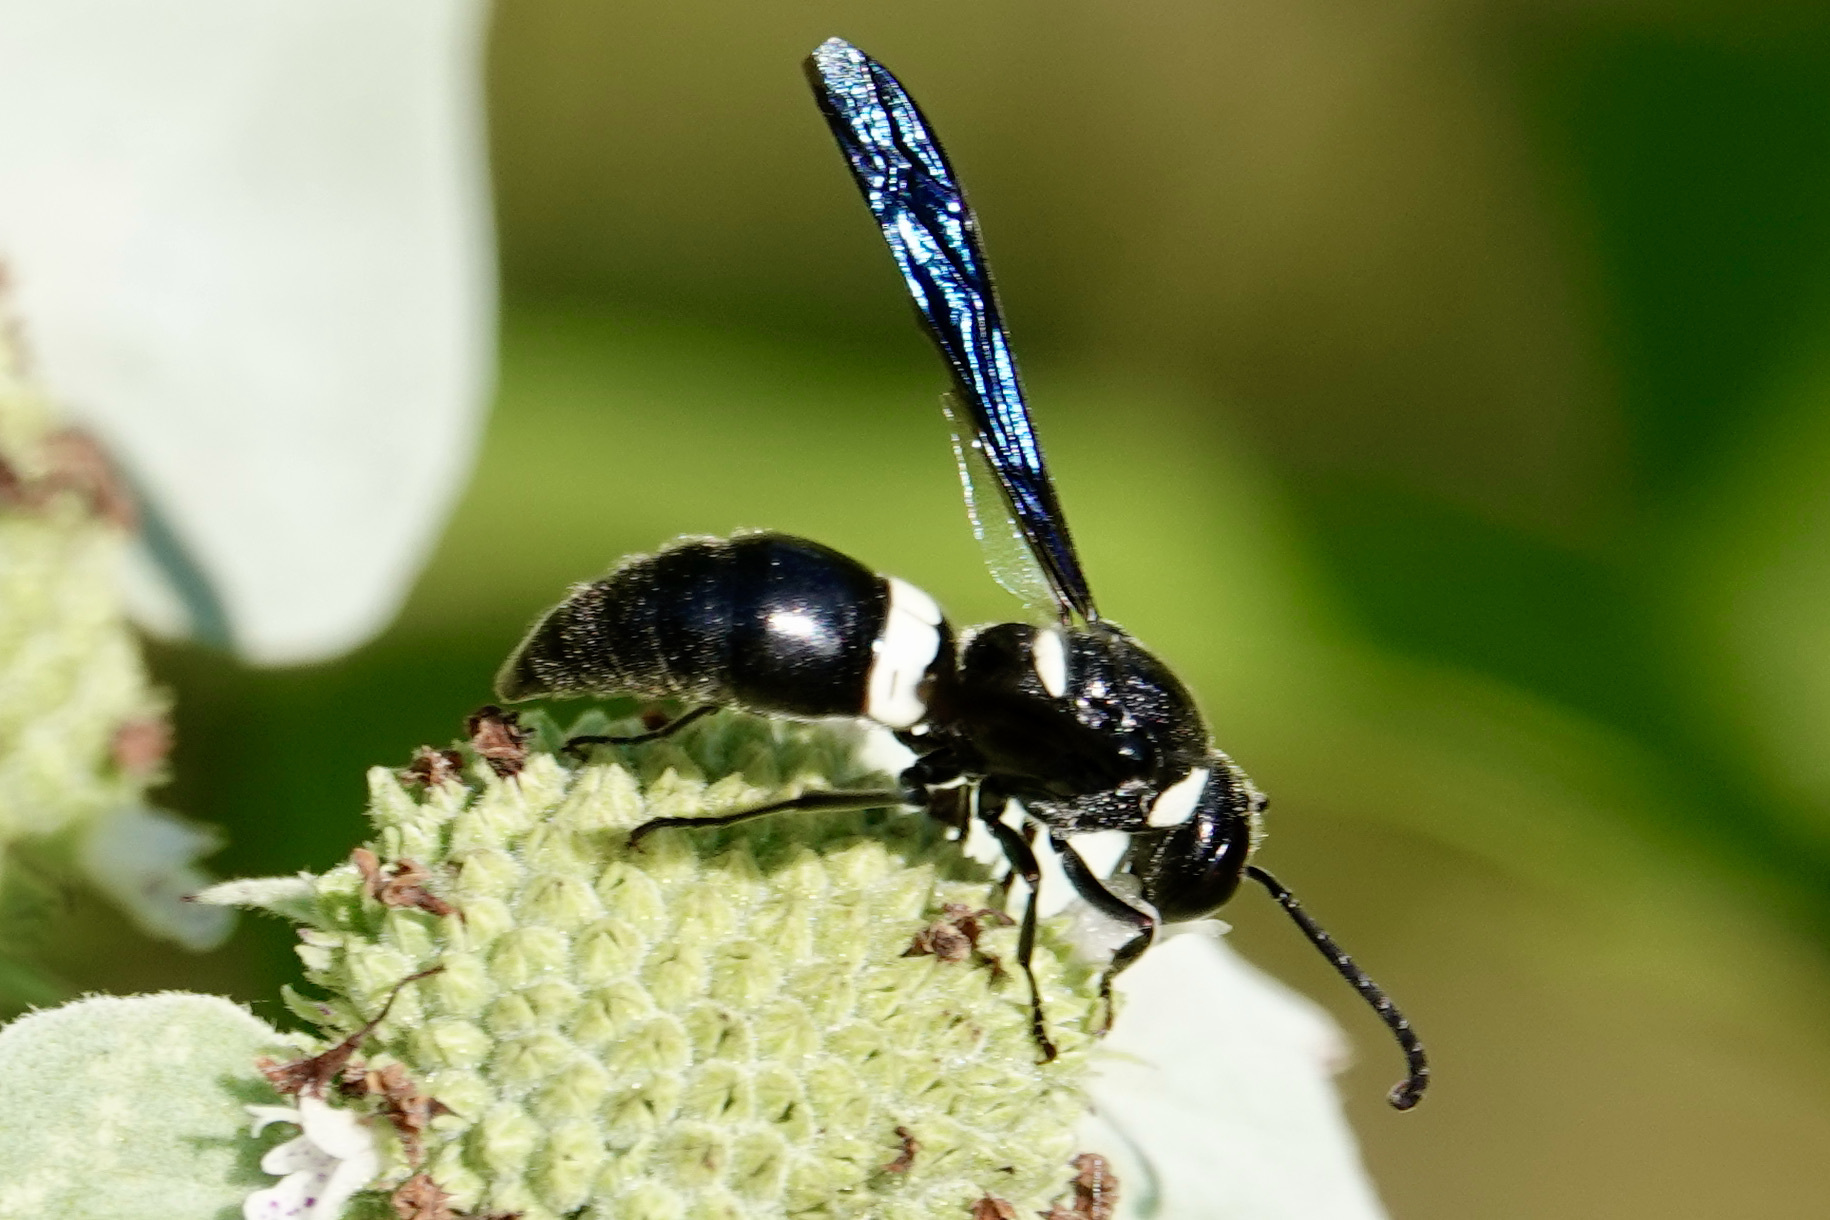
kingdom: Animalia
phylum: Arthropoda
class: Insecta
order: Hymenoptera
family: Eumenidae
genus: Monobia
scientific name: Monobia quadridens
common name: Four-toothed mason wasp
